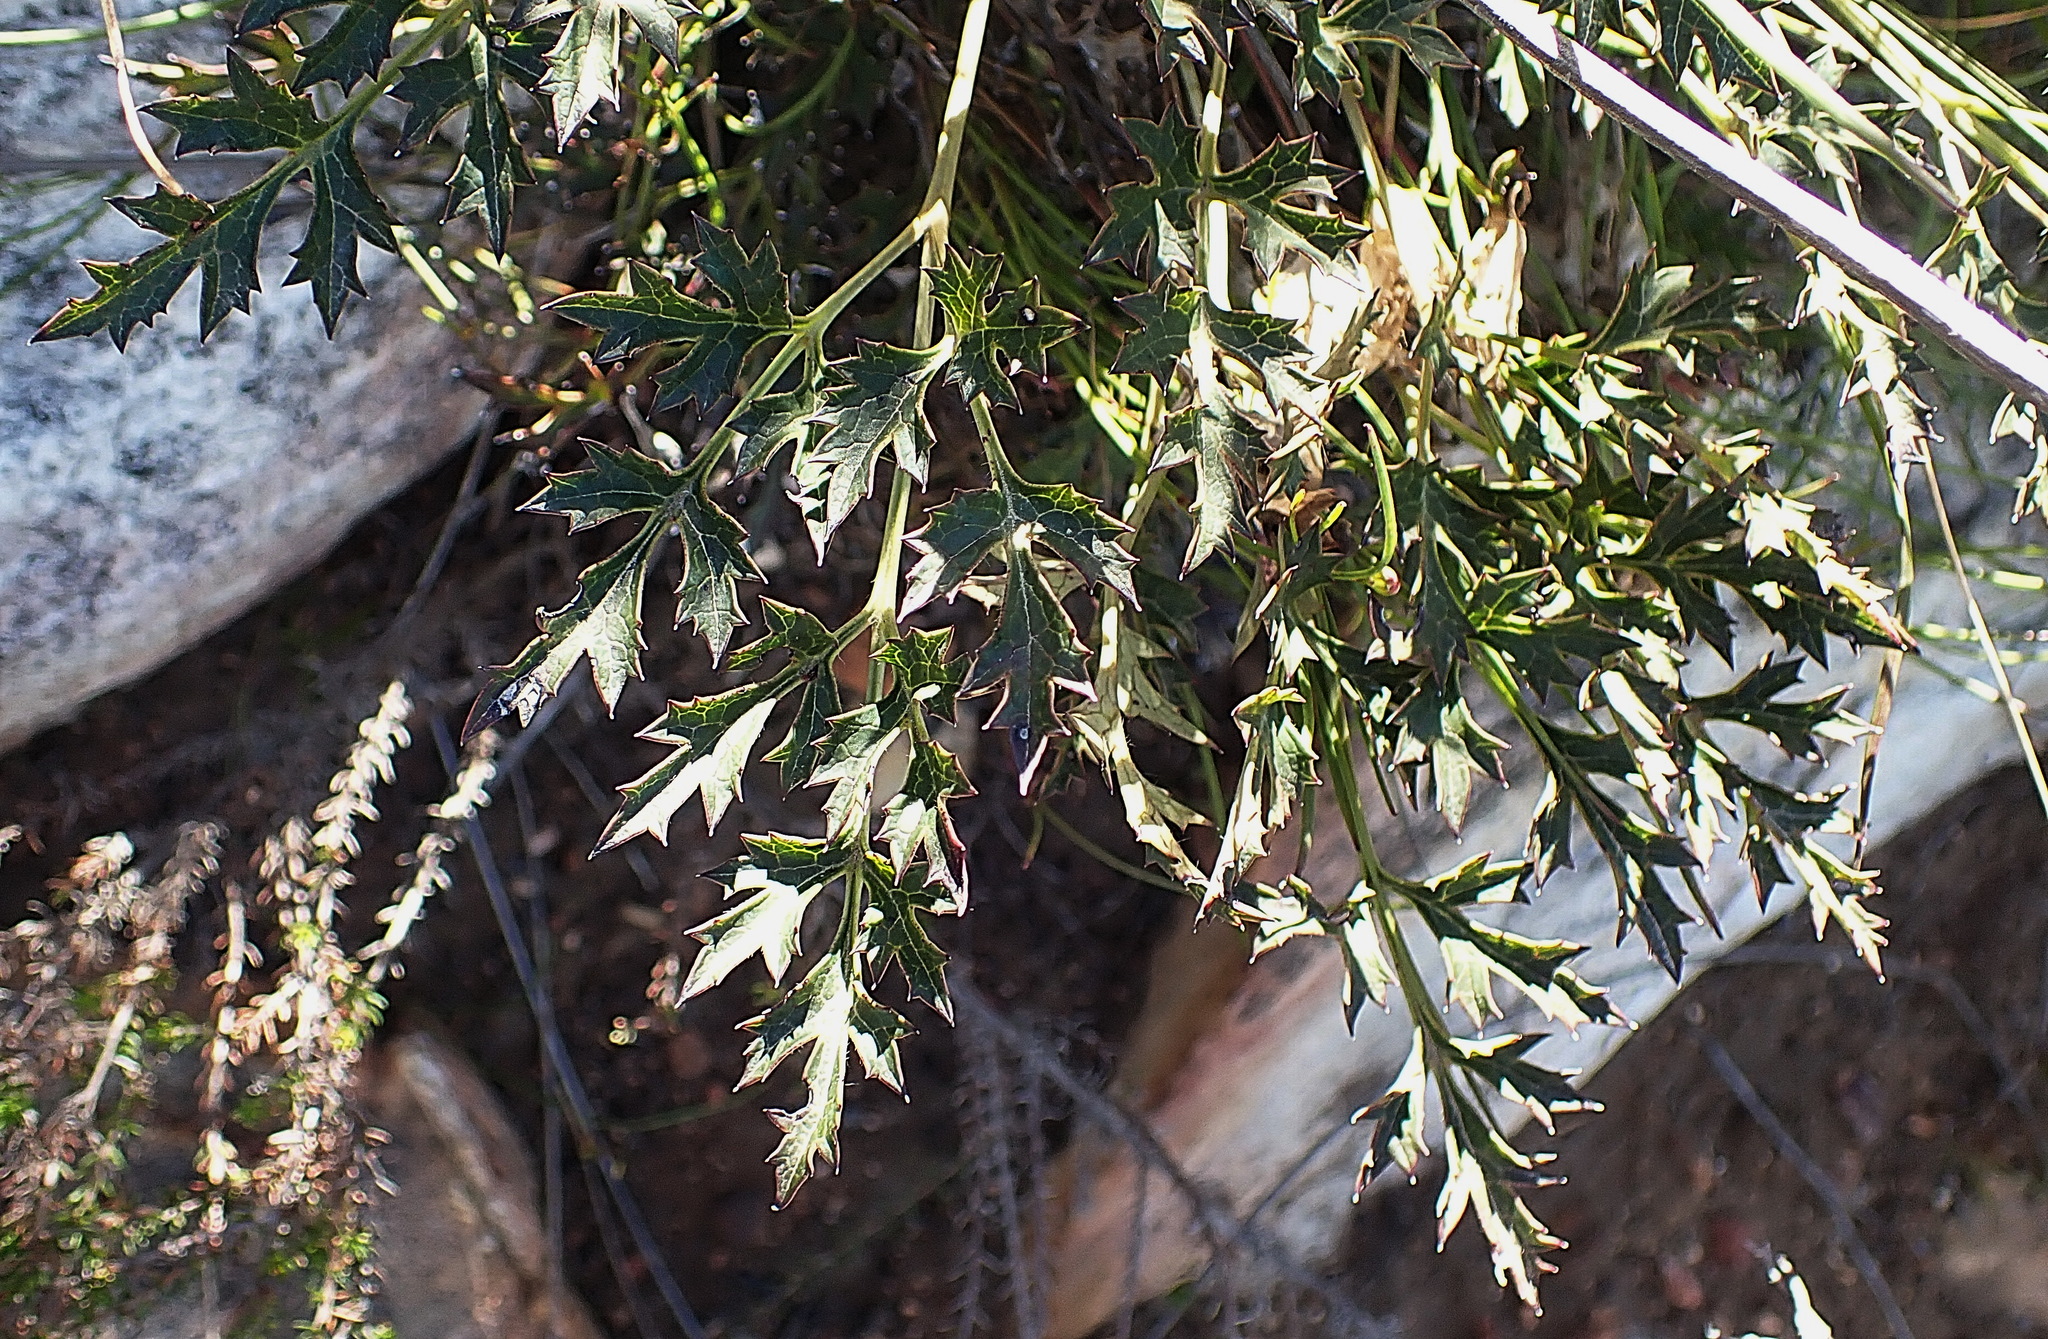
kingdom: Plantae
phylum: Tracheophyta
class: Magnoliopsida
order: Ranunculales
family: Ranunculaceae
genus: Knowltonia
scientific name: Knowltonia filia
